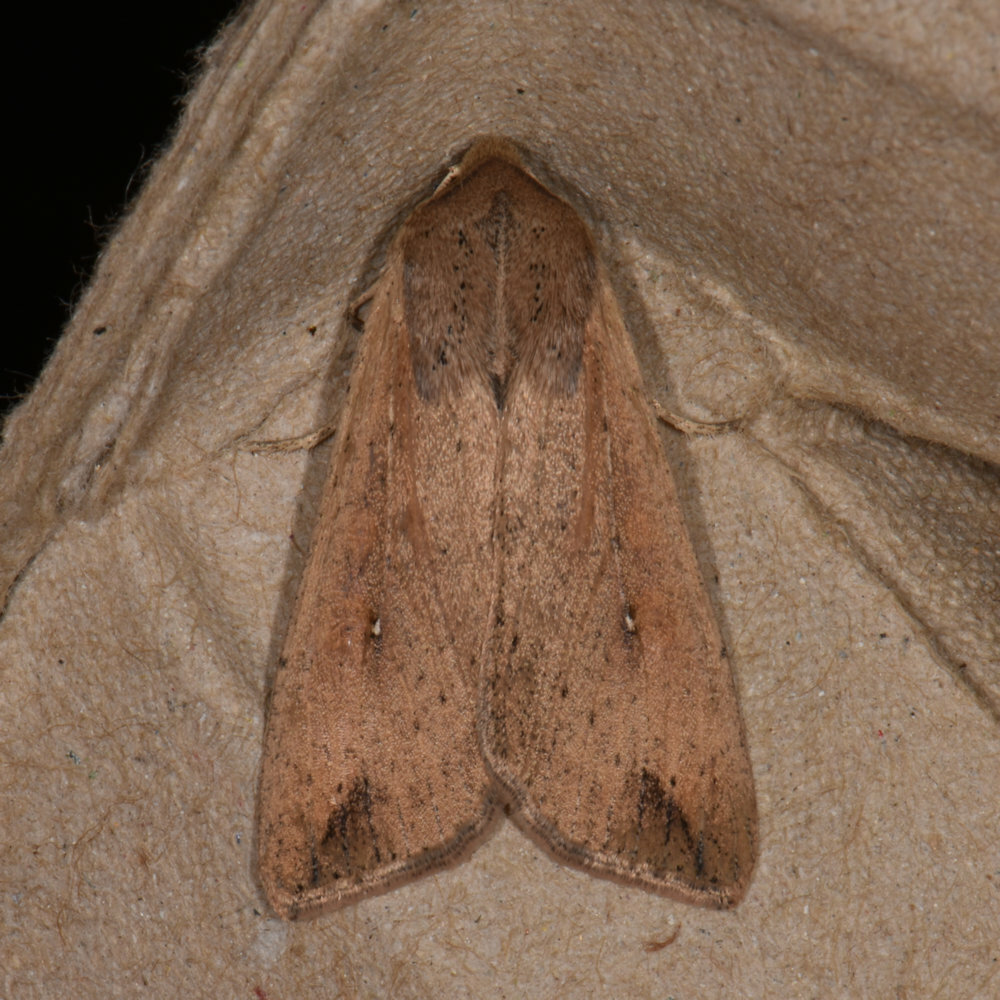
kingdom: Animalia
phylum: Arthropoda
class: Insecta
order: Lepidoptera
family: Noctuidae
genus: Mythimna
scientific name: Mythimna unipuncta
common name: White-speck
